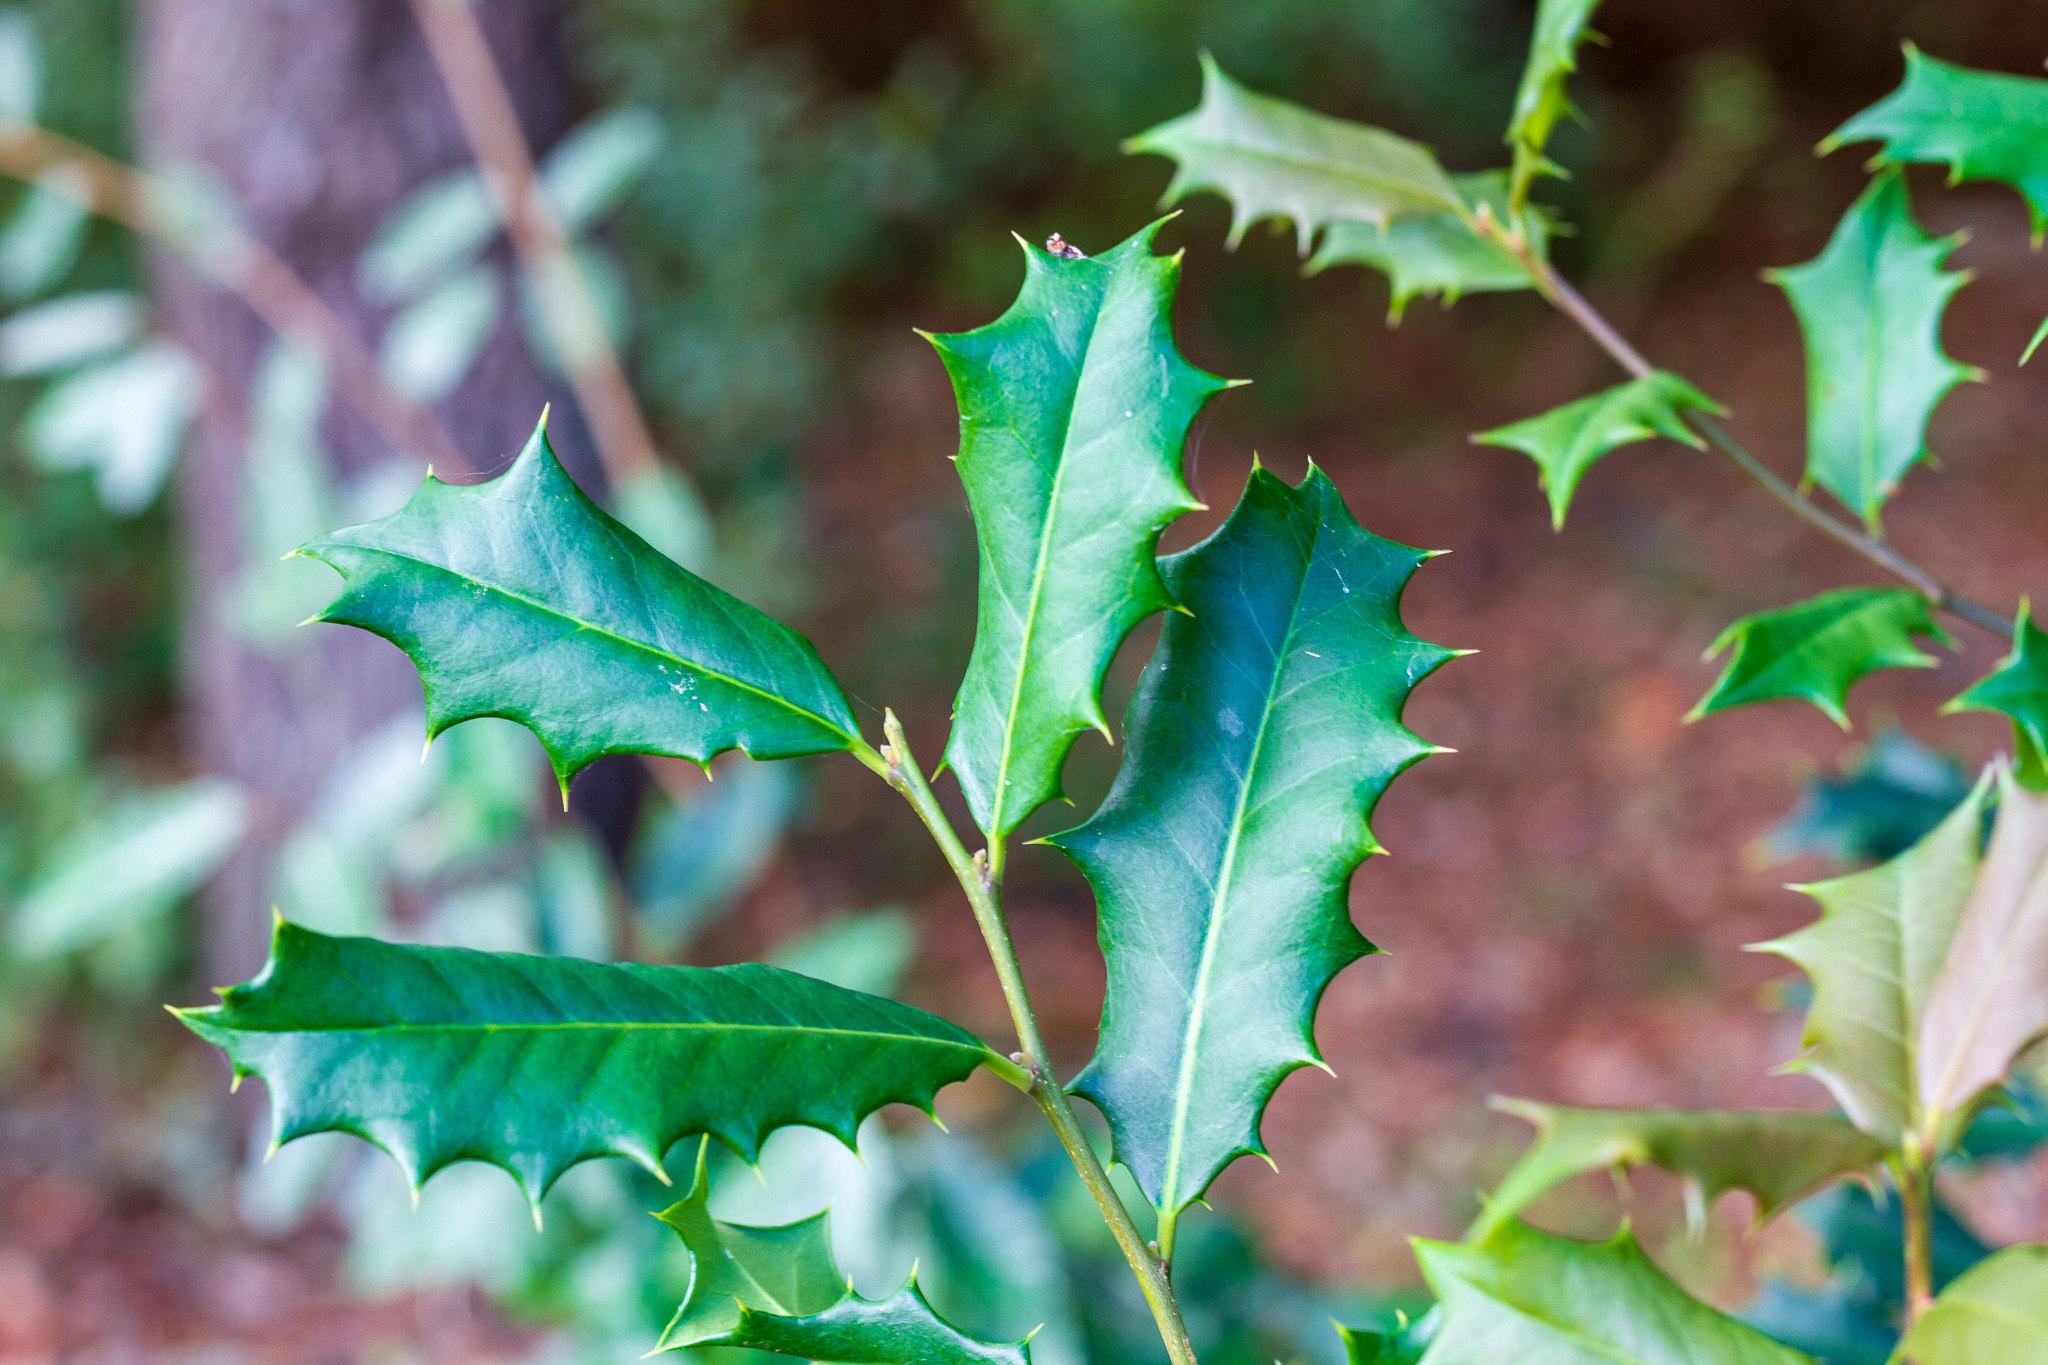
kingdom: Plantae
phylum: Tracheophyta
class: Magnoliopsida
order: Aquifoliales
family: Aquifoliaceae
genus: Ilex
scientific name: Ilex opaca
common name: American holly
